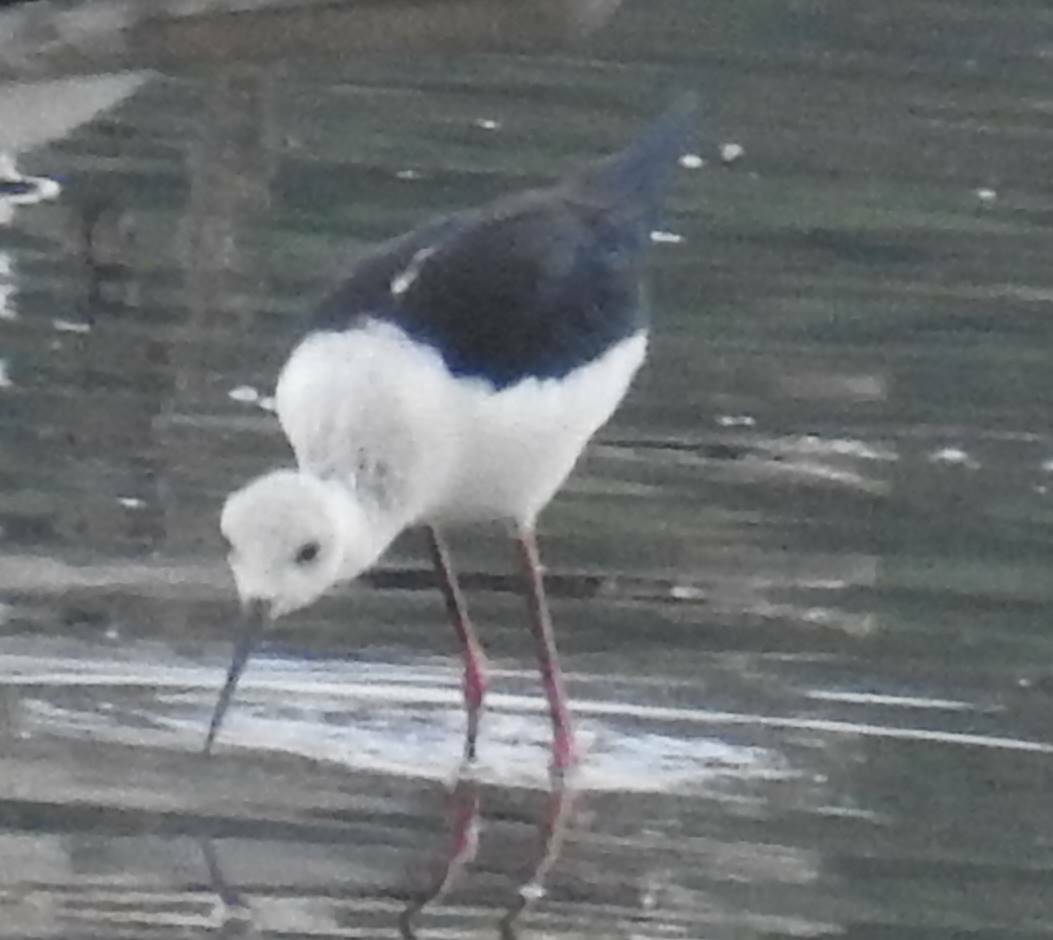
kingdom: Animalia
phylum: Chordata
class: Aves
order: Charadriiformes
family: Recurvirostridae
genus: Himantopus
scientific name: Himantopus himantopus
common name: Black-winged stilt
